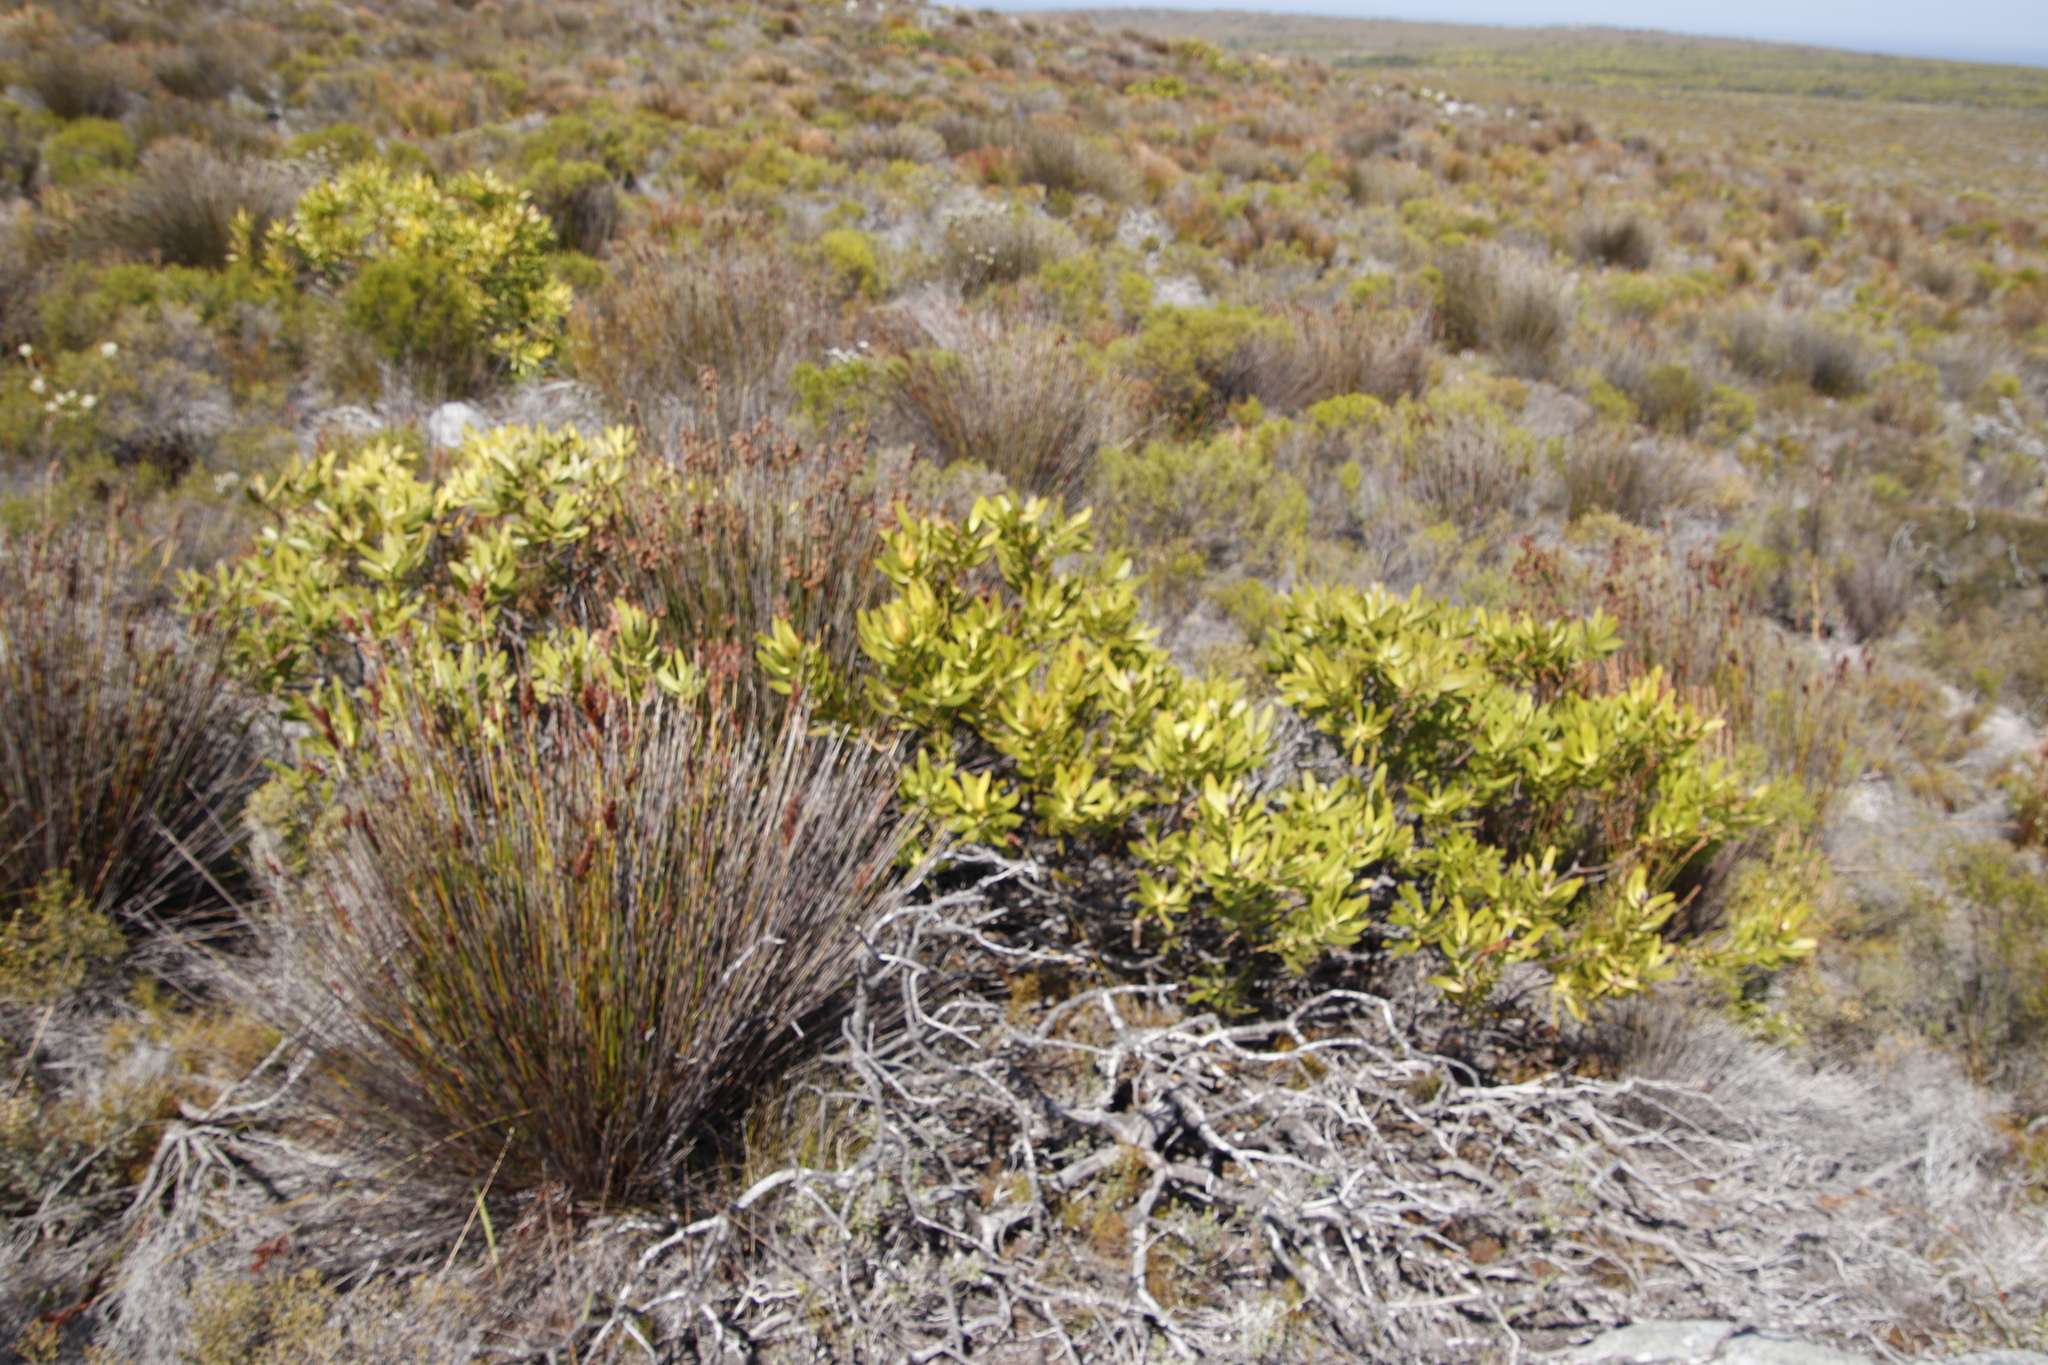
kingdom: Plantae
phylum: Tracheophyta
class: Magnoliopsida
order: Proteales
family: Proteaceae
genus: Leucadendron
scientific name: Leucadendron laureolum
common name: Golden sunshinebush
